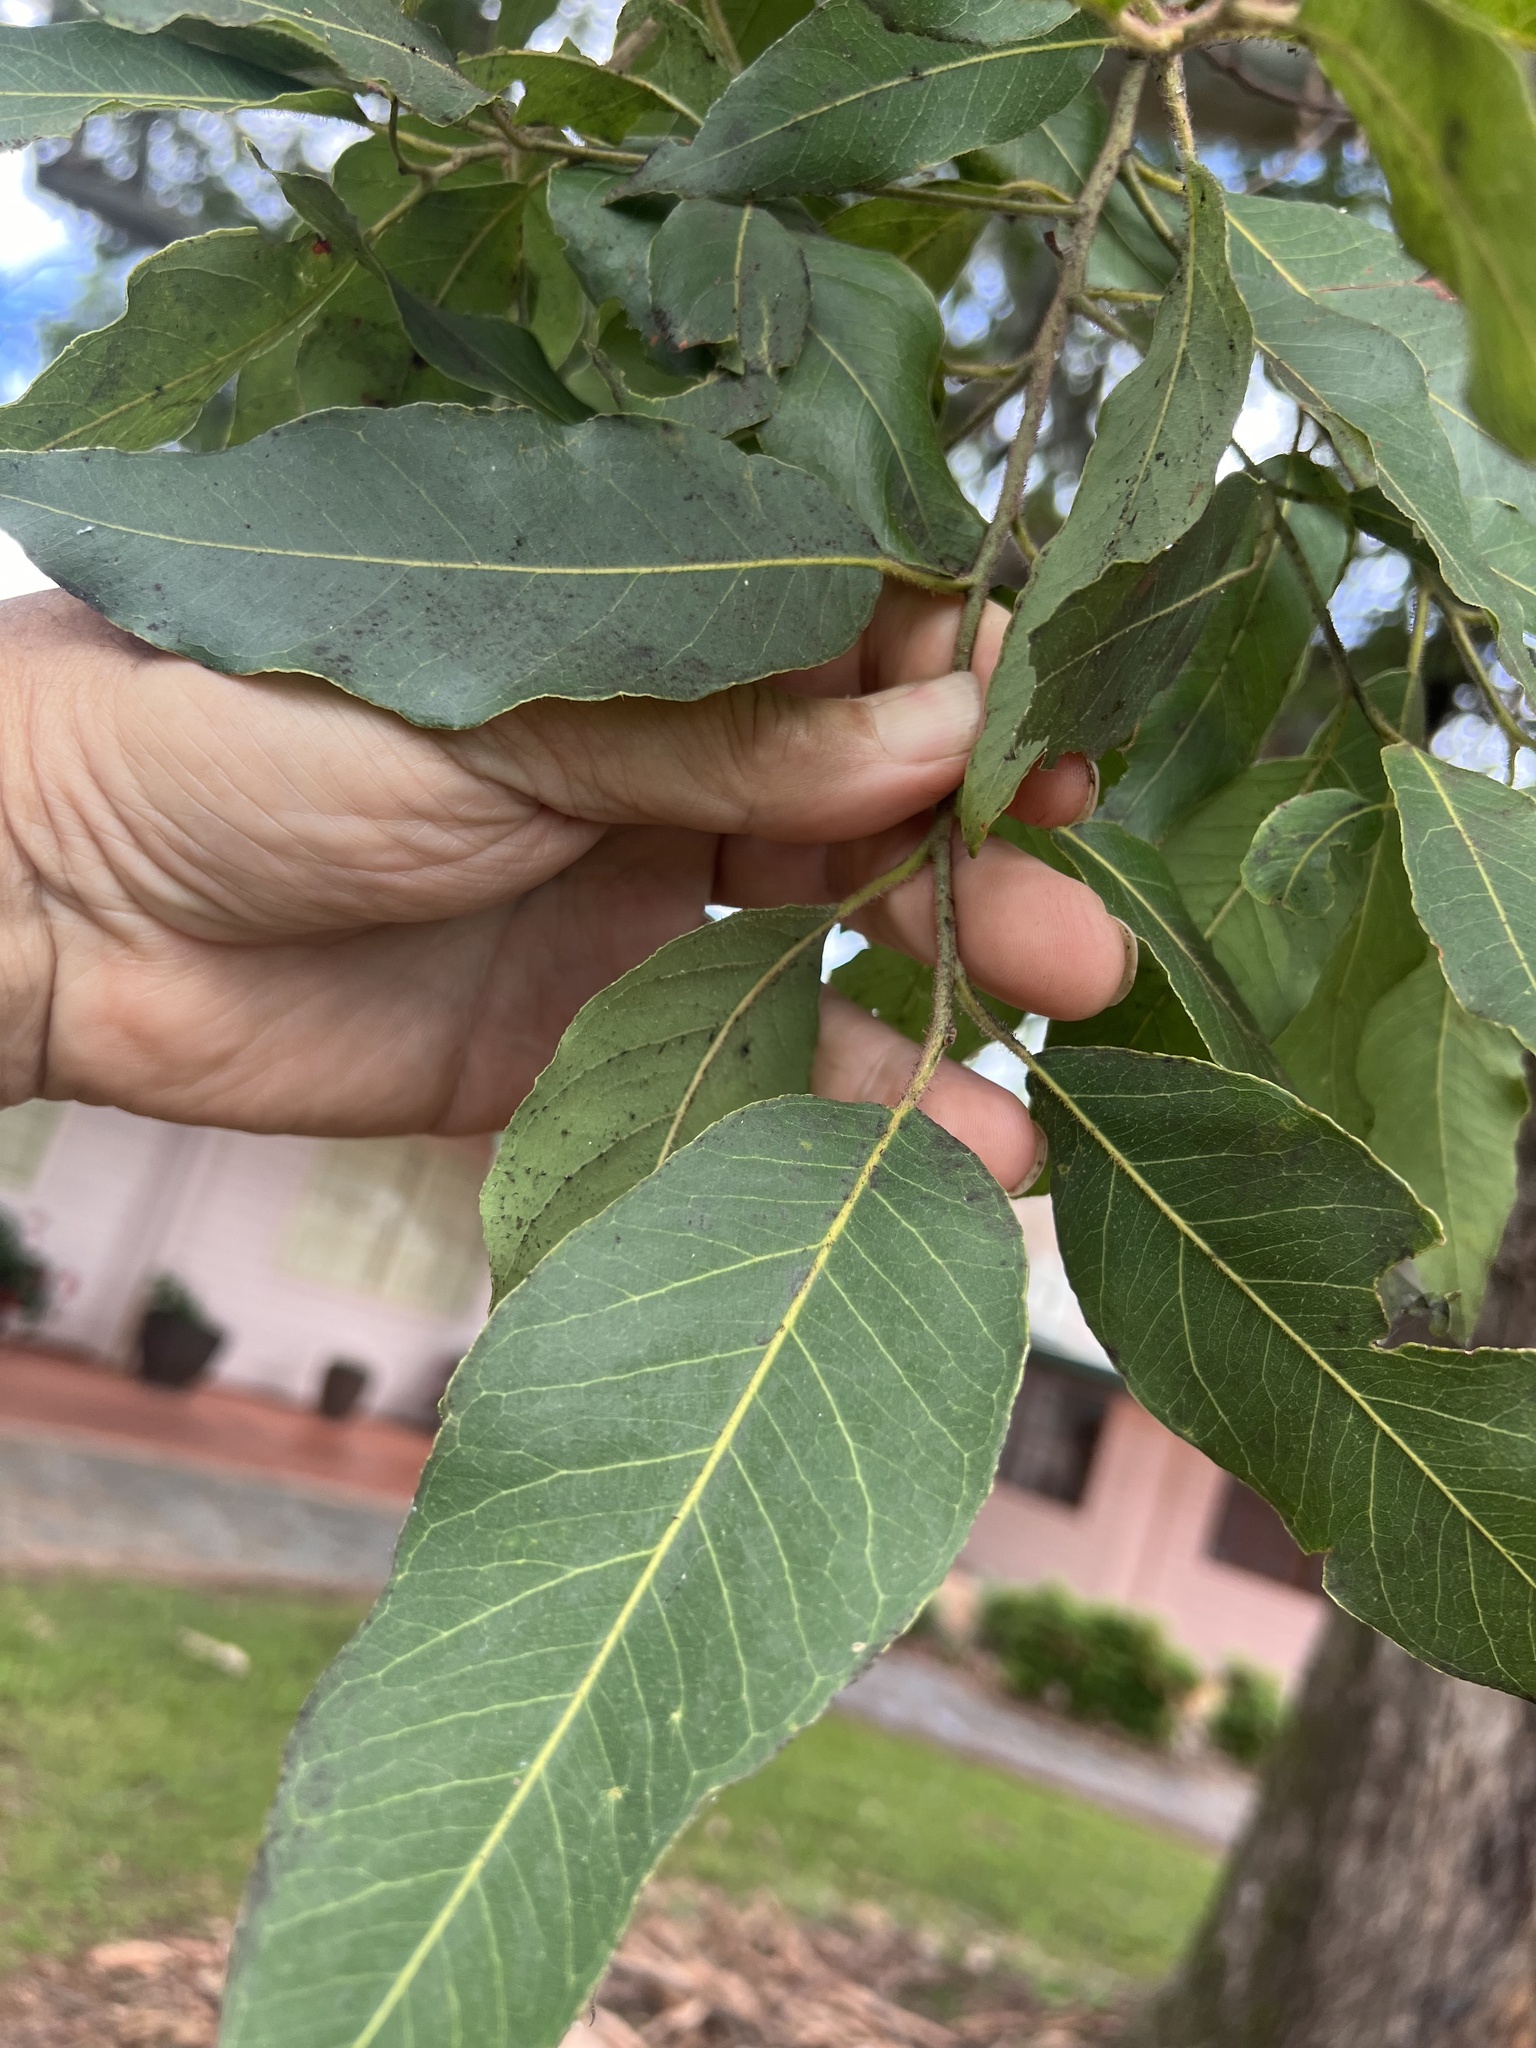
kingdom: Plantae
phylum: Tracheophyta
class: Magnoliopsida
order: Myrtales
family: Myrtaceae
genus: Corymbia
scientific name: Corymbia torelliana
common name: Cadaghi
